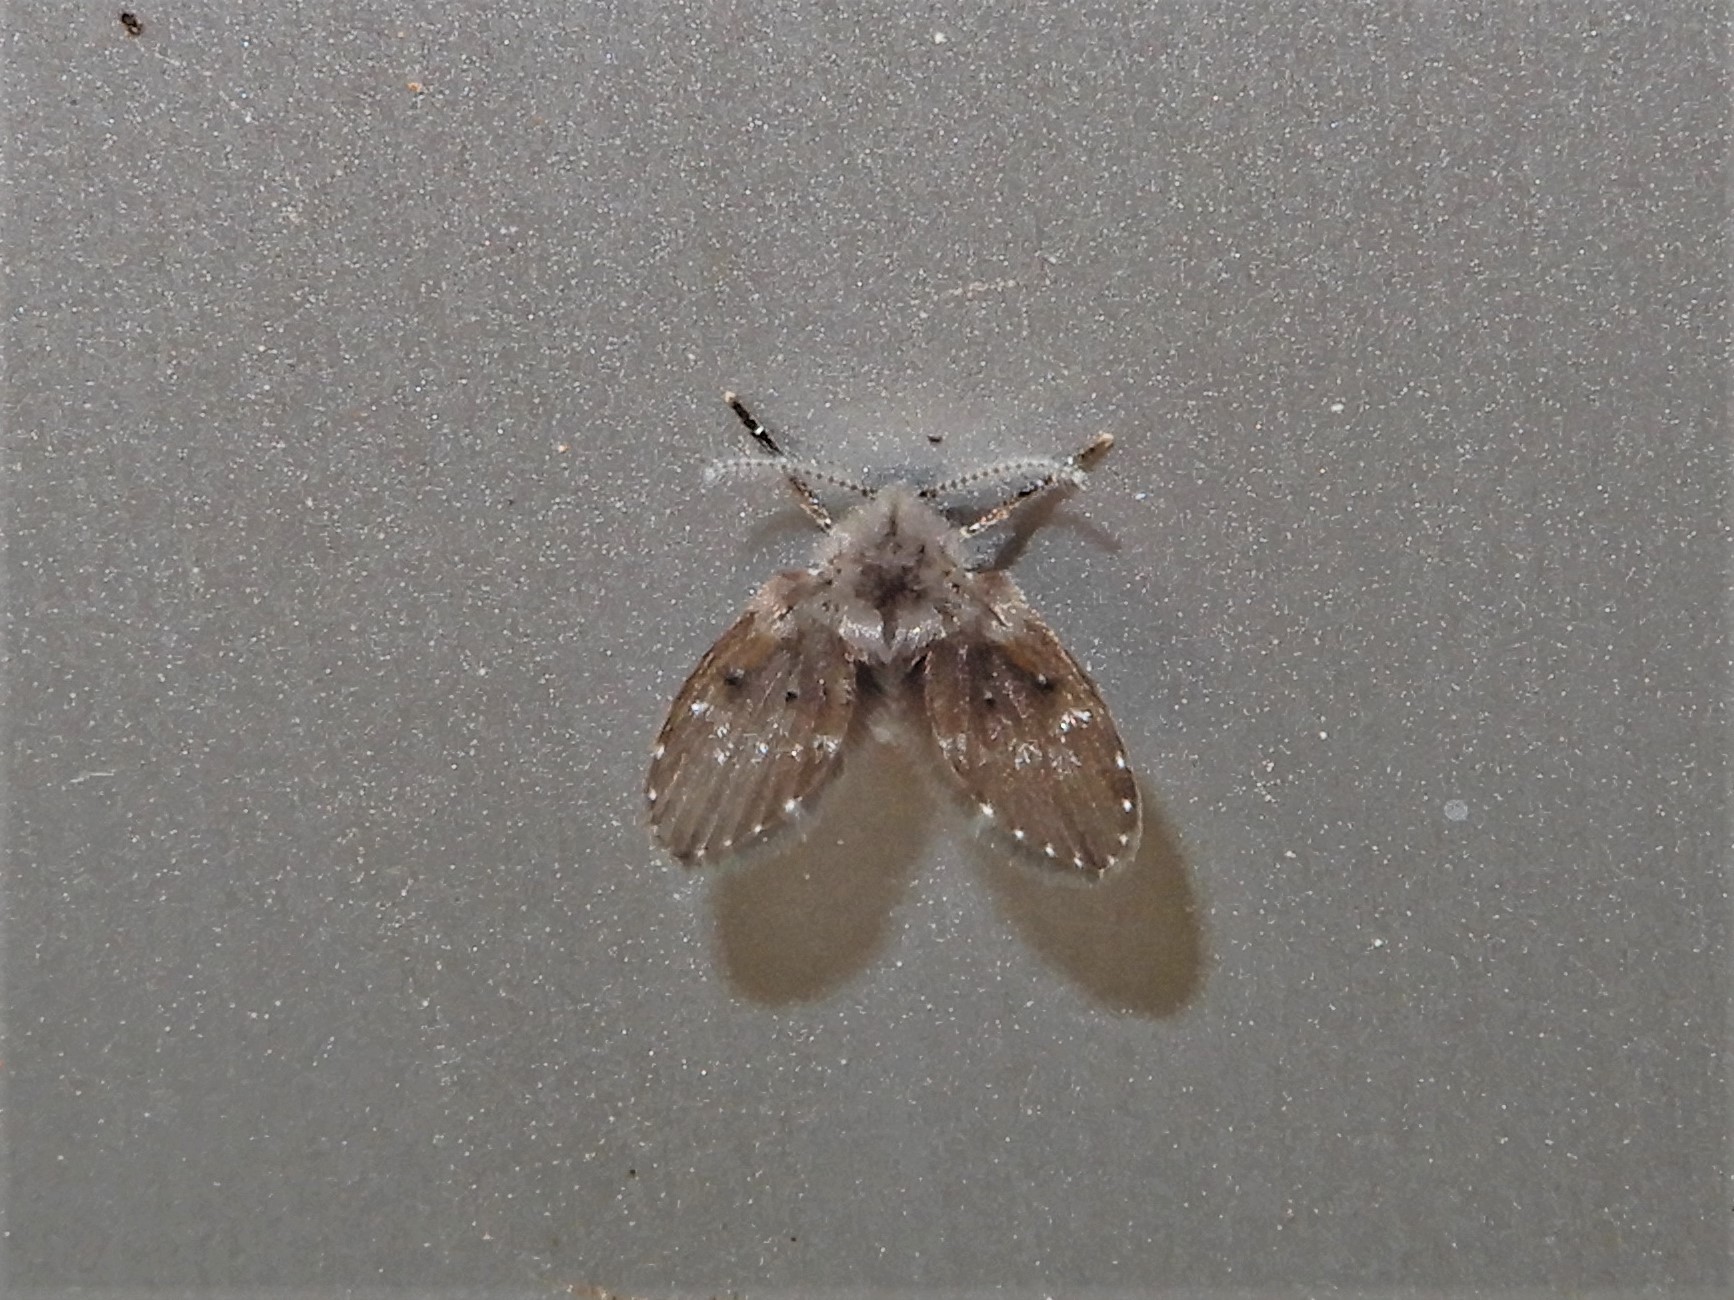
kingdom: Animalia
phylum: Arthropoda
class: Insecta
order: Diptera
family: Psychodidae
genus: Clogmia
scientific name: Clogmia albipunctatus
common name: White-spotted moth fly
